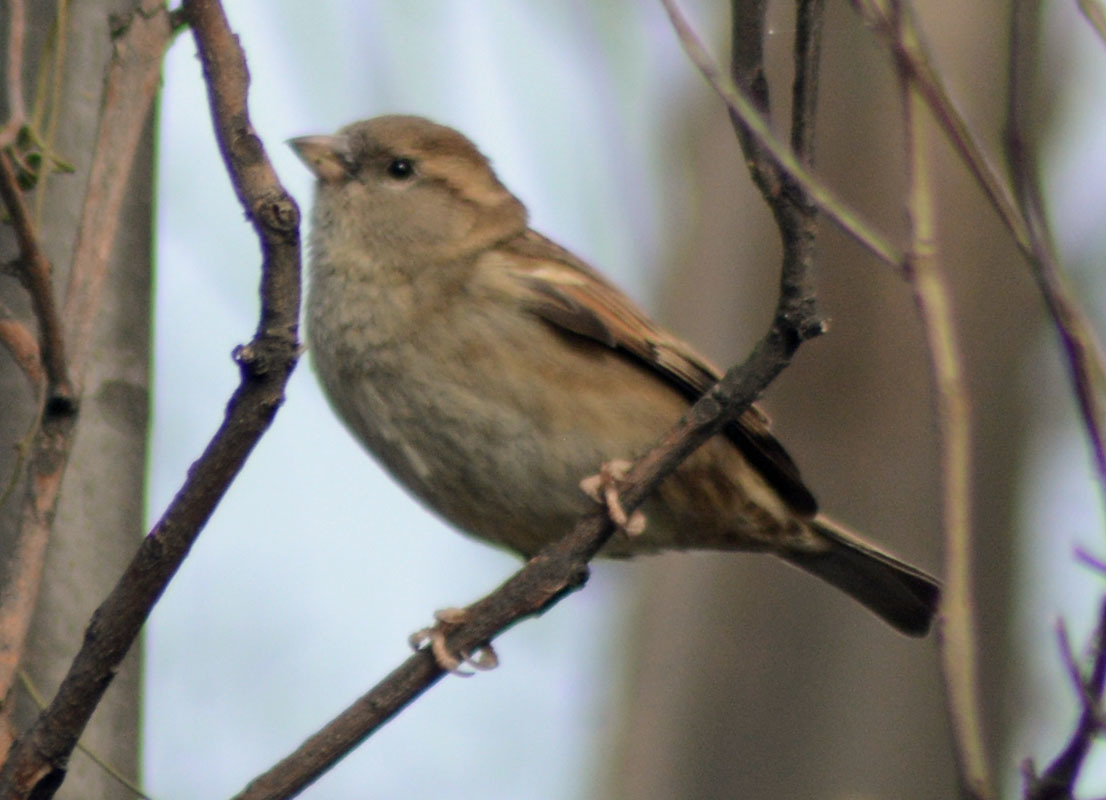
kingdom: Animalia
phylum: Chordata
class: Aves
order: Passeriformes
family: Passeridae
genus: Passer
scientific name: Passer domesticus
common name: House sparrow
